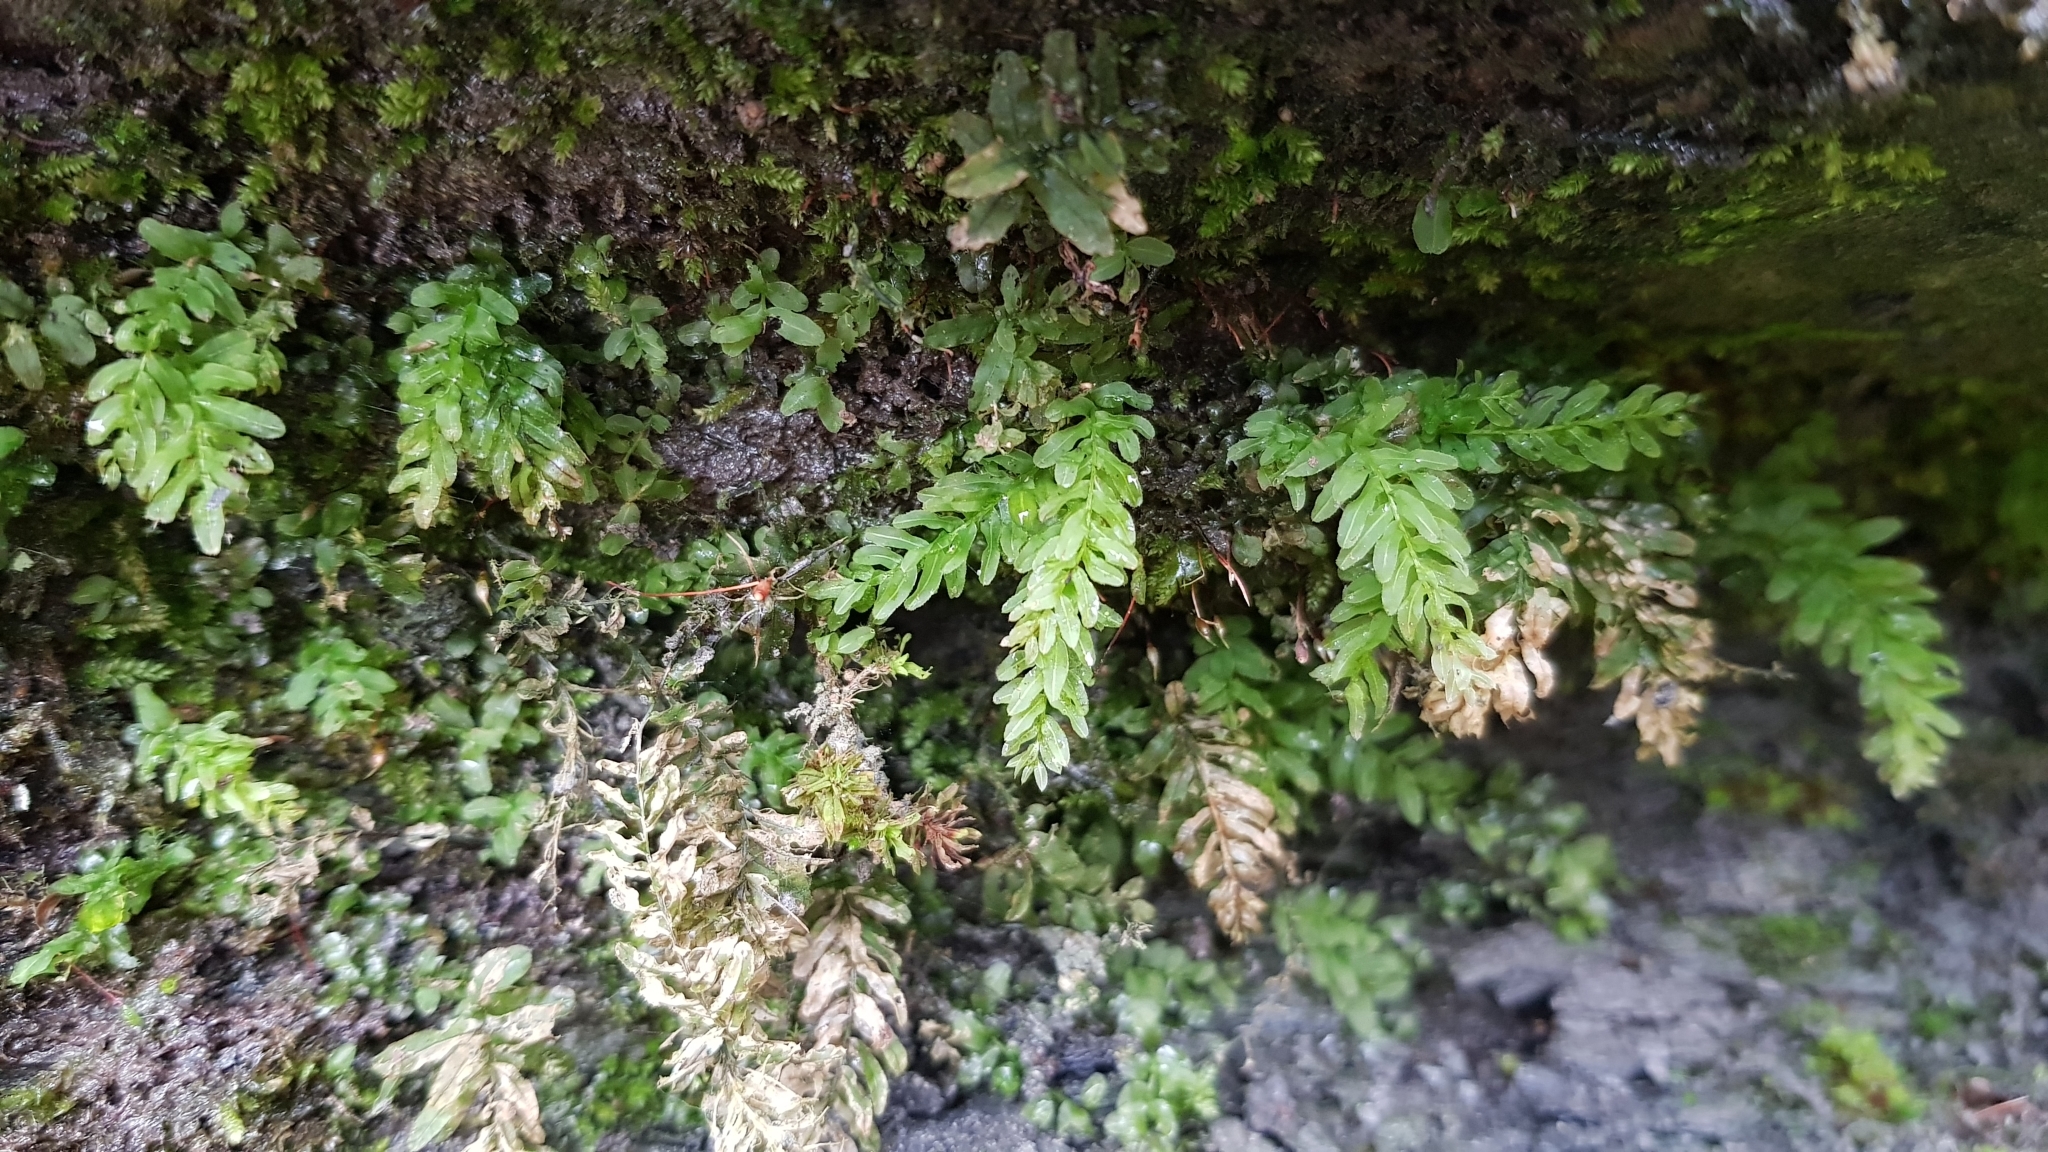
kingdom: Plantae
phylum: Bryophyta
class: Bryopsida
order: Bryales
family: Mniaceae
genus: Plagiomnium
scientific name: Plagiomnium undulatum
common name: Hart's-tongue thyme-moss
